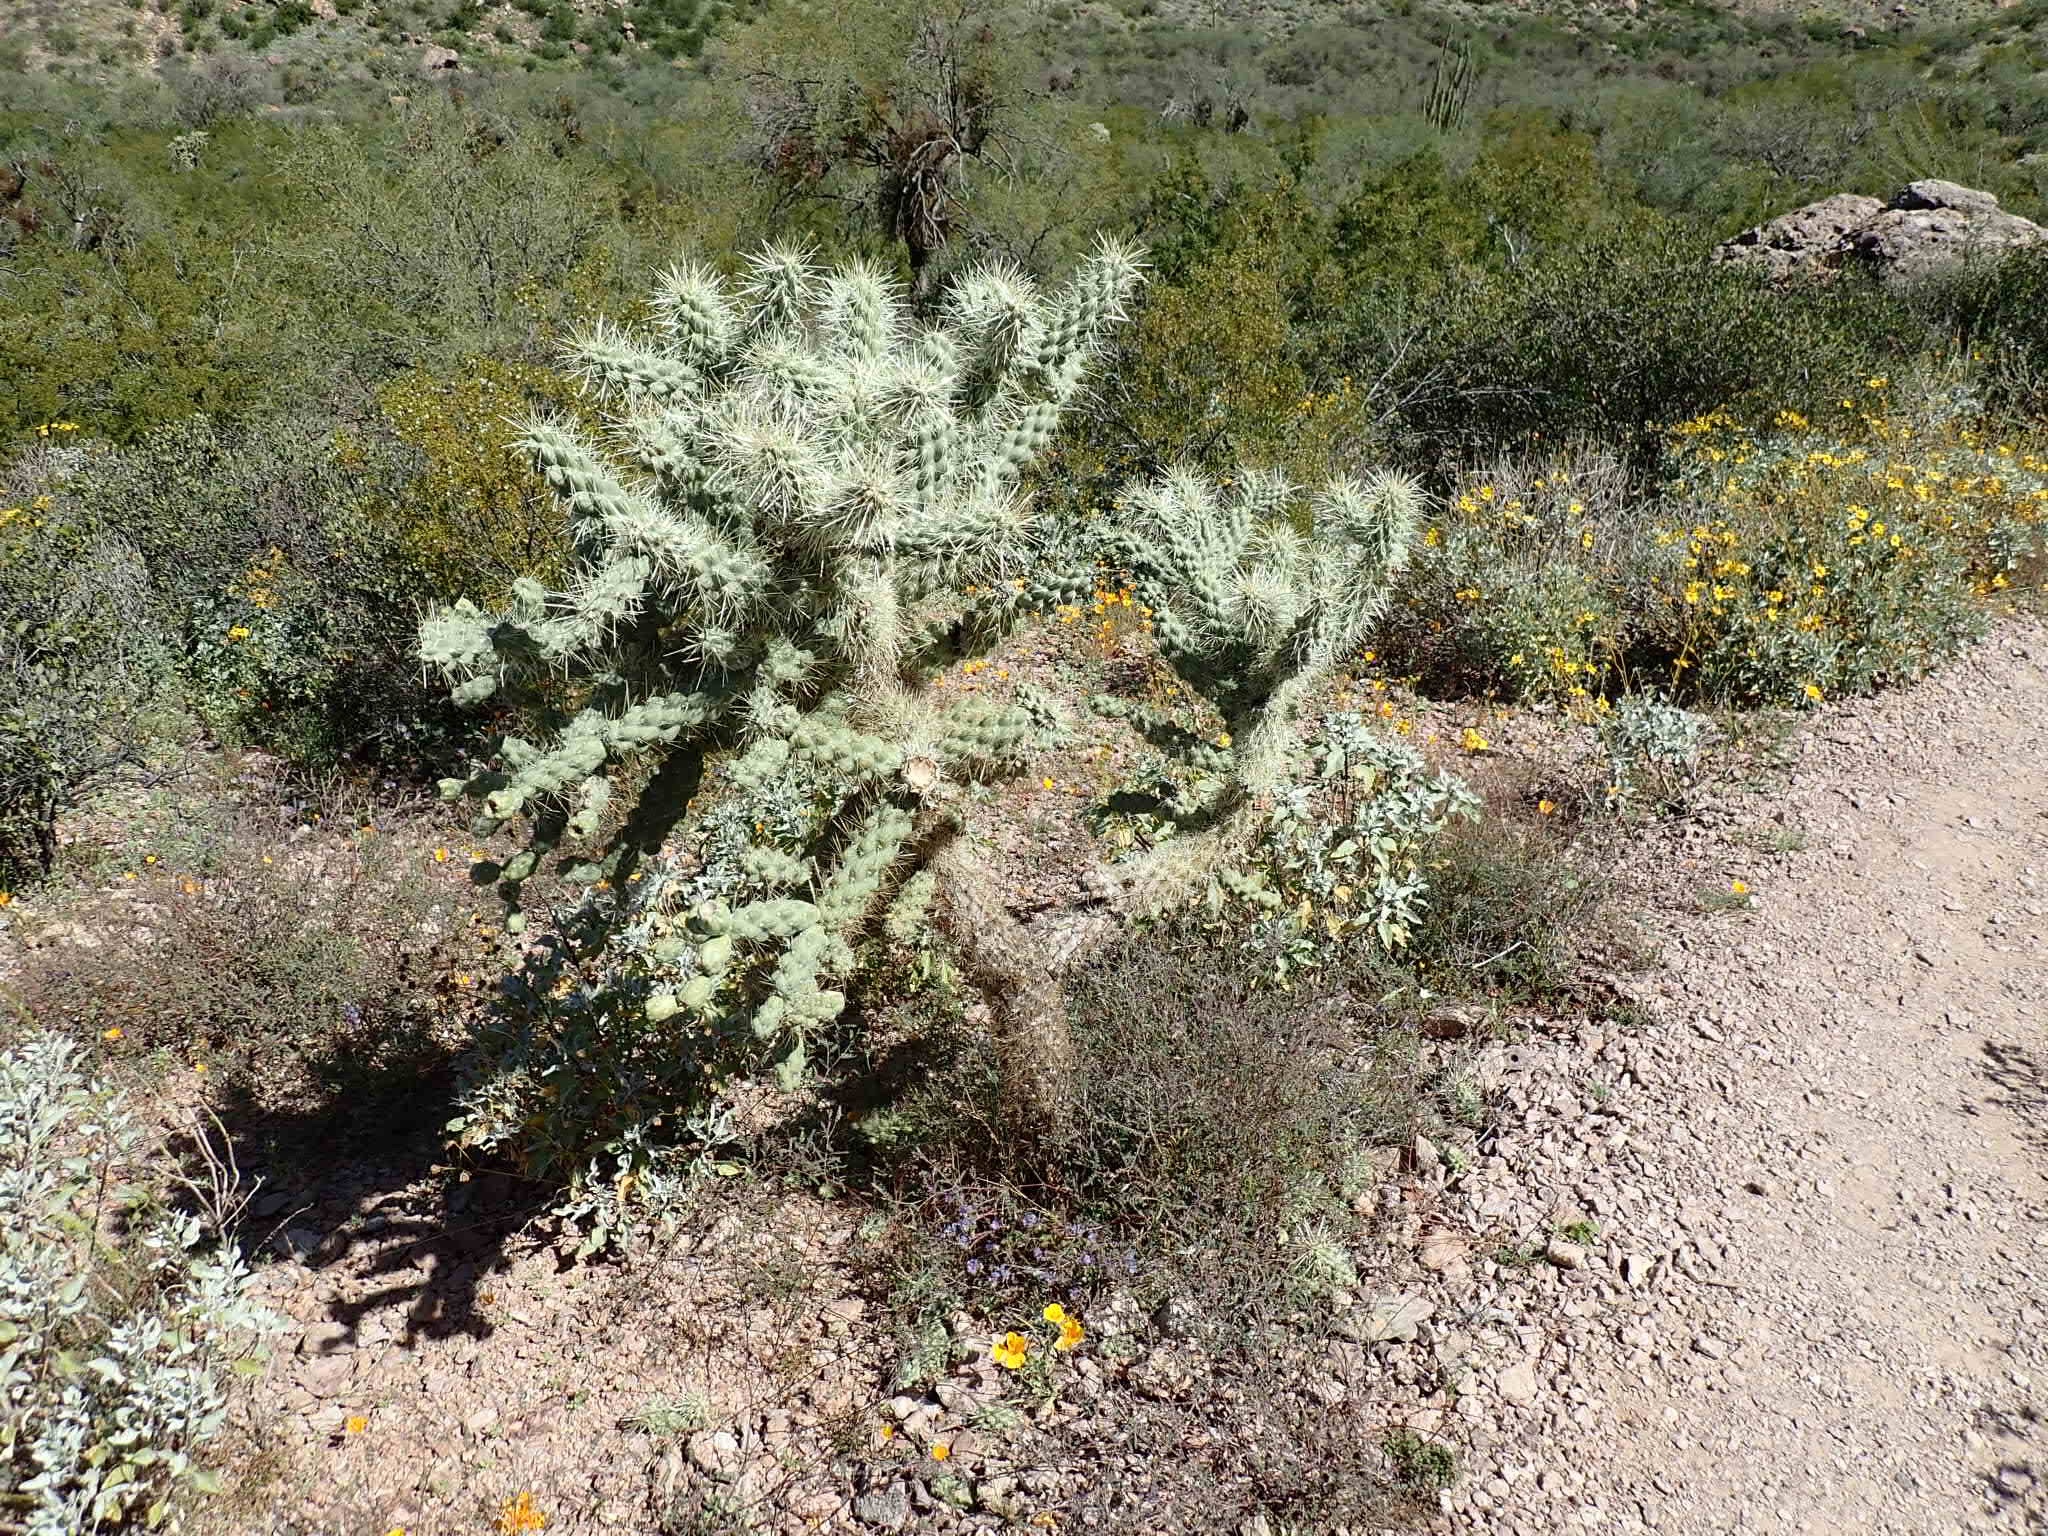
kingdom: Plantae
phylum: Tracheophyta
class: Magnoliopsida
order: Caryophyllales
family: Cactaceae
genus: Cylindropuntia
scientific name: Cylindropuntia fulgida
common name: Jumping cholla
